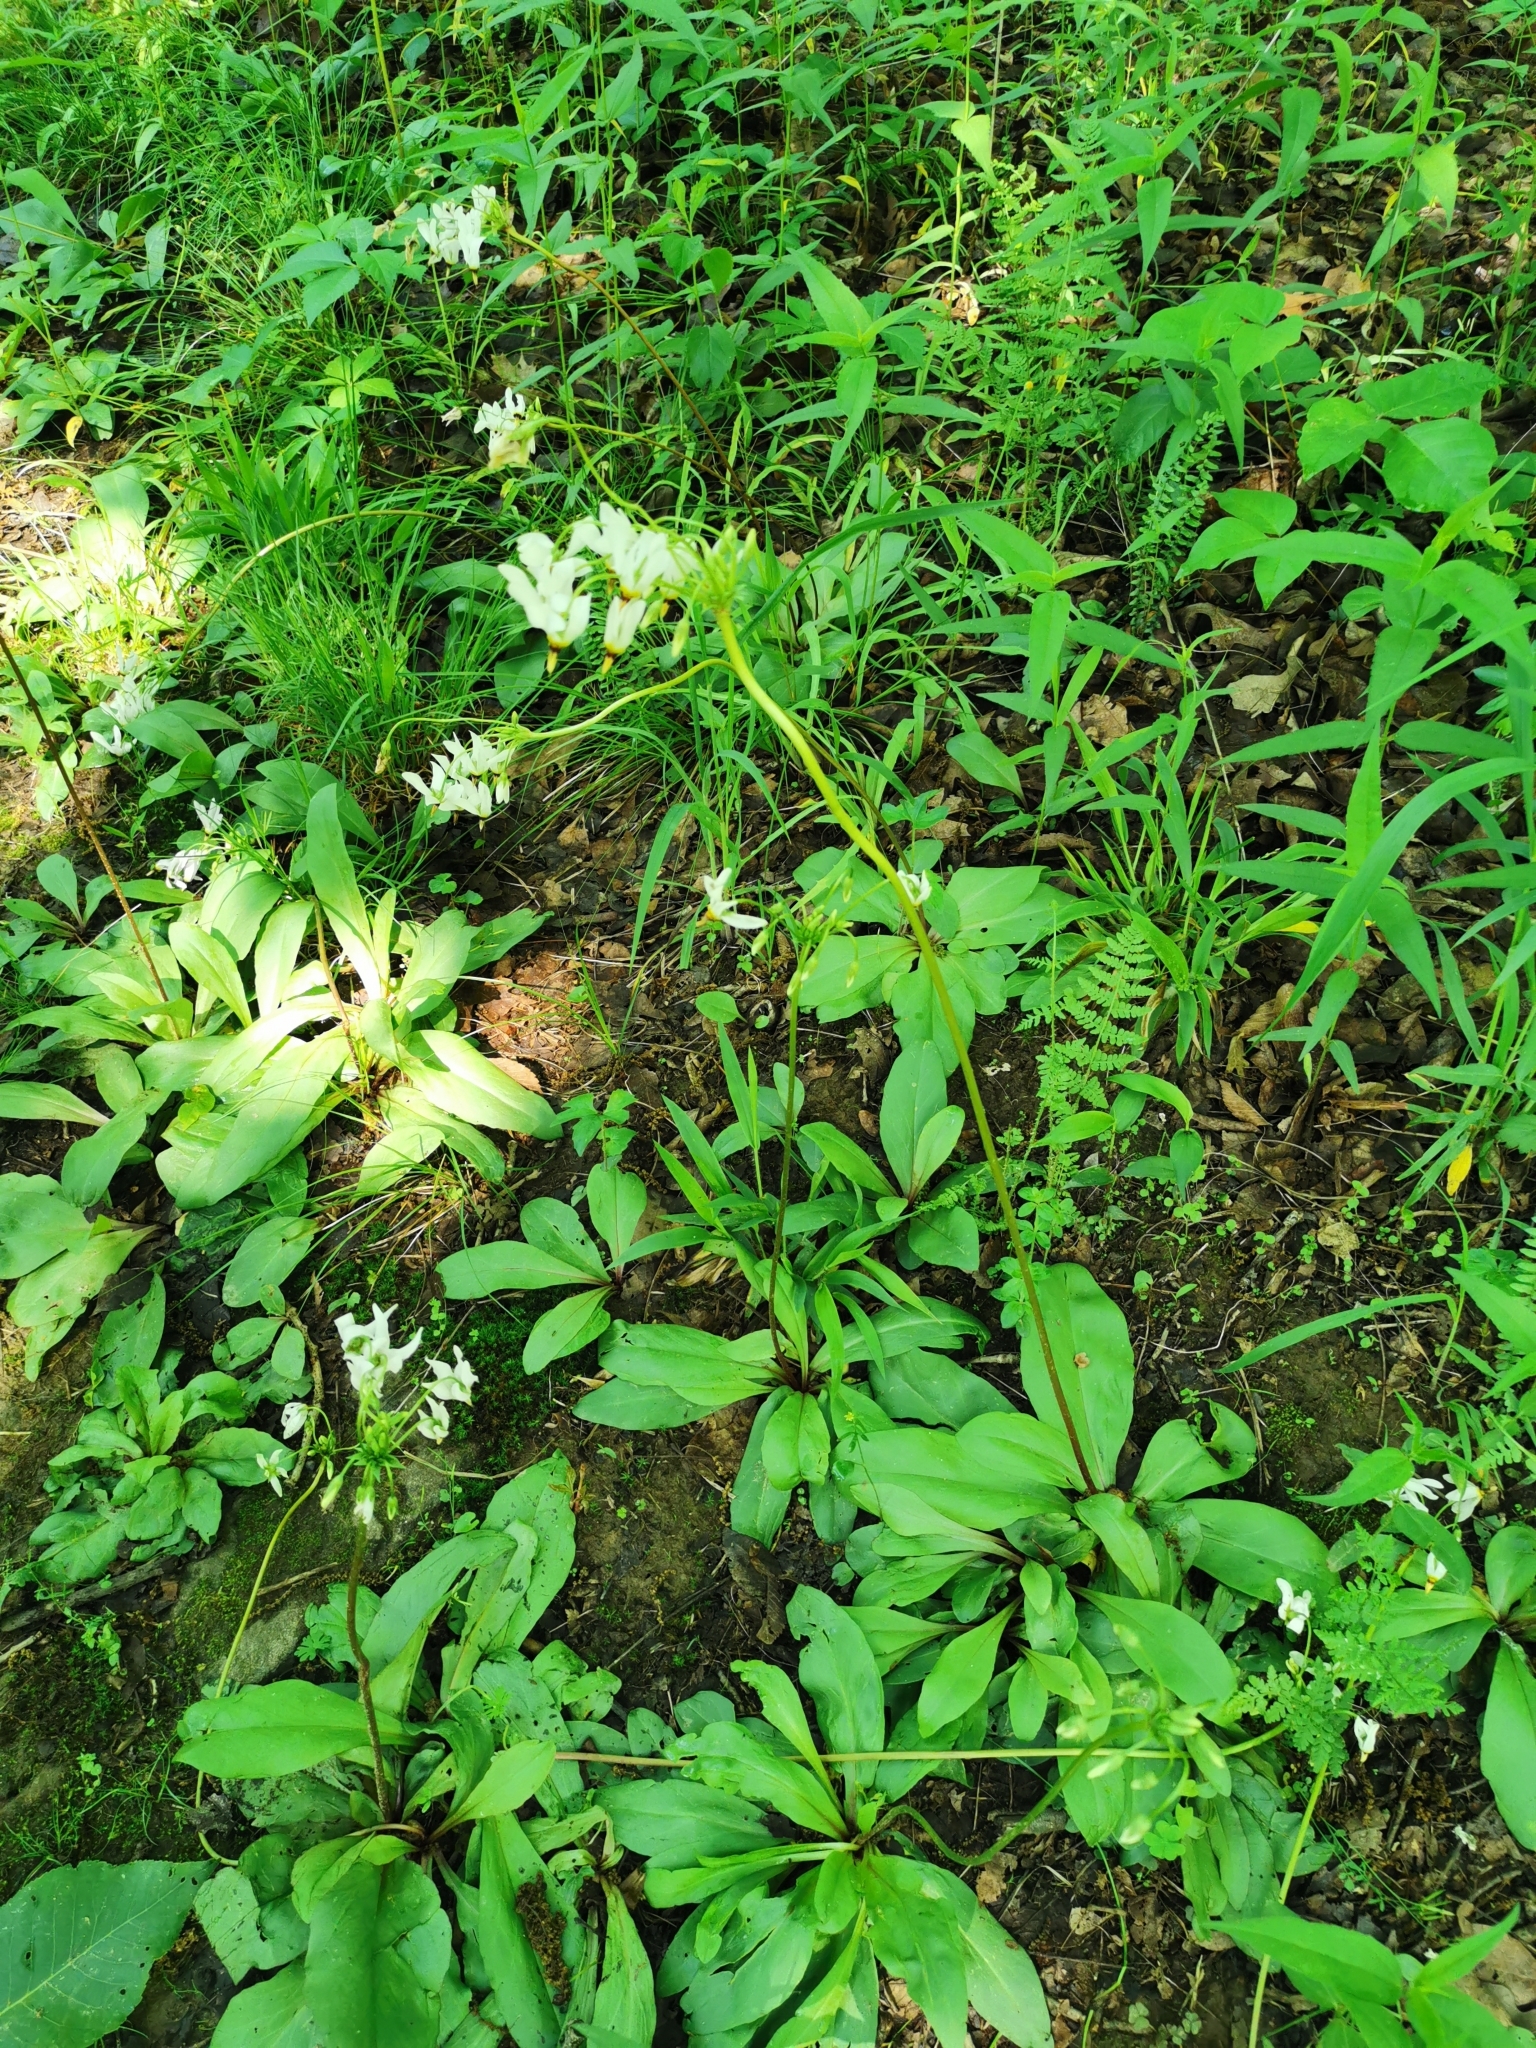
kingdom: Plantae
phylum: Tracheophyta
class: Magnoliopsida
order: Ericales
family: Primulaceae
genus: Dodecatheon
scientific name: Dodecatheon meadia
